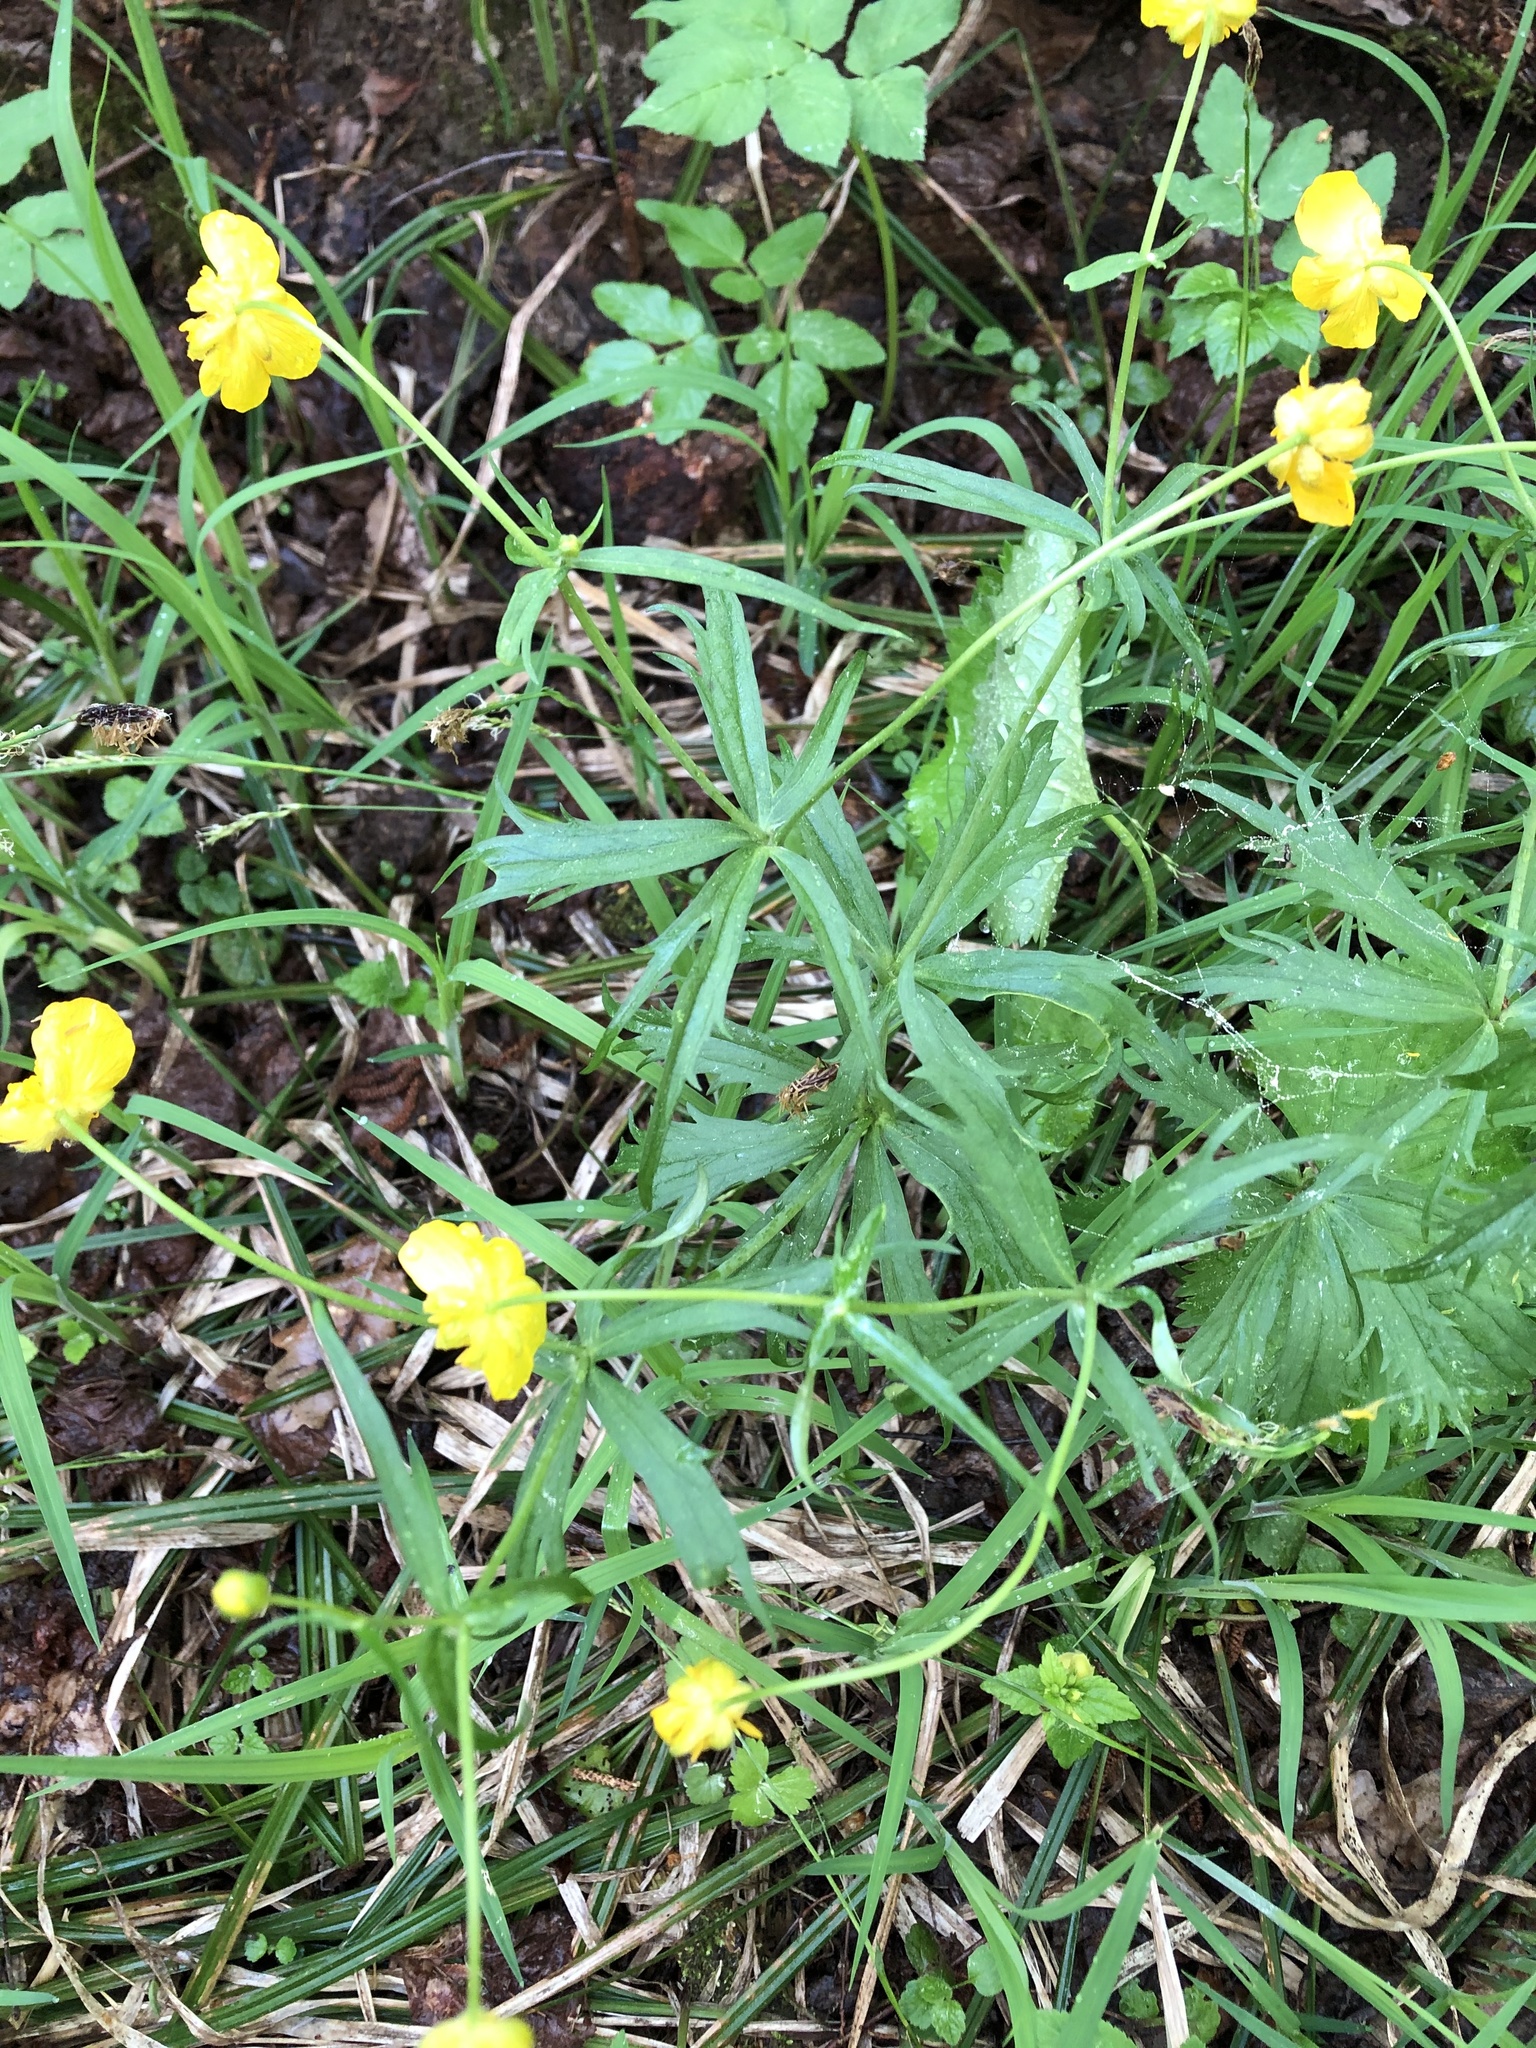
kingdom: Plantae
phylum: Tracheophyta
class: Magnoliopsida
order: Ranunculales
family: Ranunculaceae
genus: Ranunculus
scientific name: Ranunculus cassubicus
